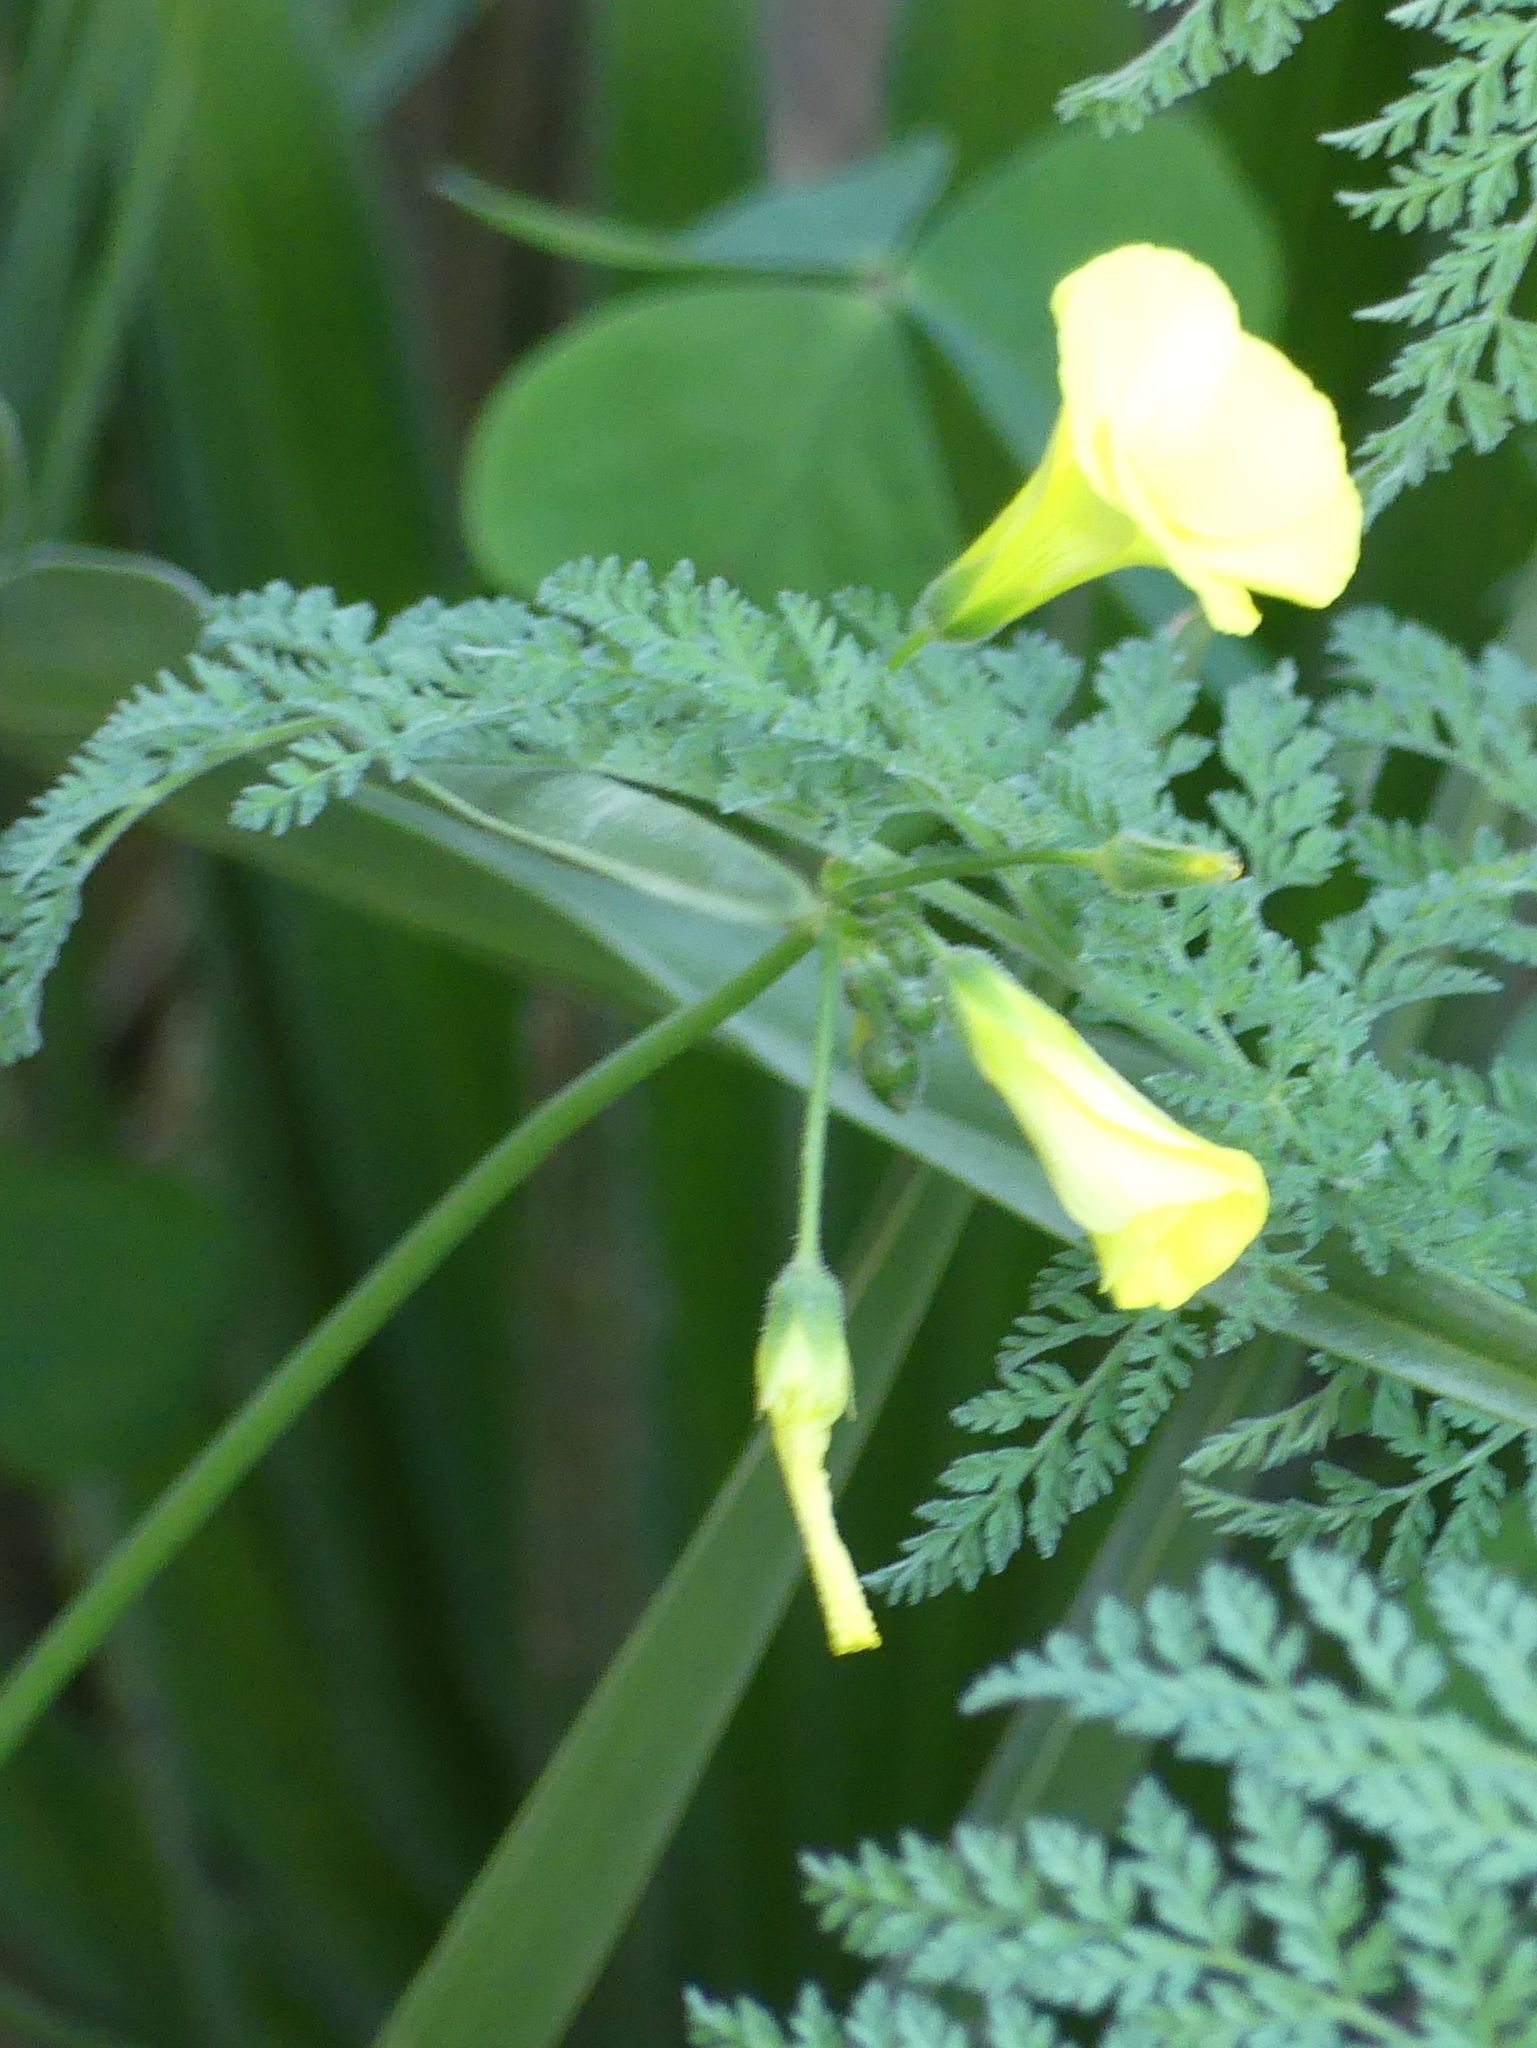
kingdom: Plantae
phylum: Tracheophyta
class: Magnoliopsida
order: Oxalidales
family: Oxalidaceae
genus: Oxalis
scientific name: Oxalis pes-caprae
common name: Bermuda-buttercup
